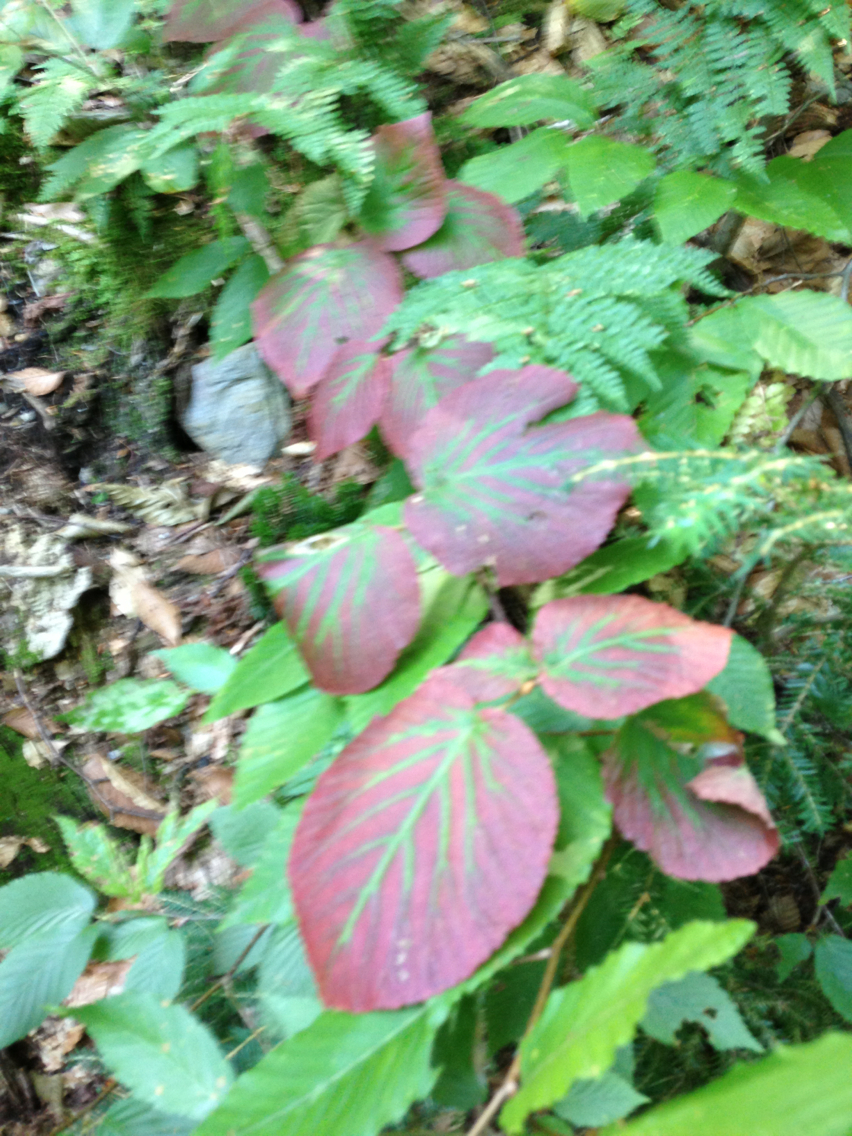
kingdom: Plantae
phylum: Tracheophyta
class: Magnoliopsida
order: Dipsacales
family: Viburnaceae
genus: Viburnum
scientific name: Viburnum lantanoides
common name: Hobblebush
